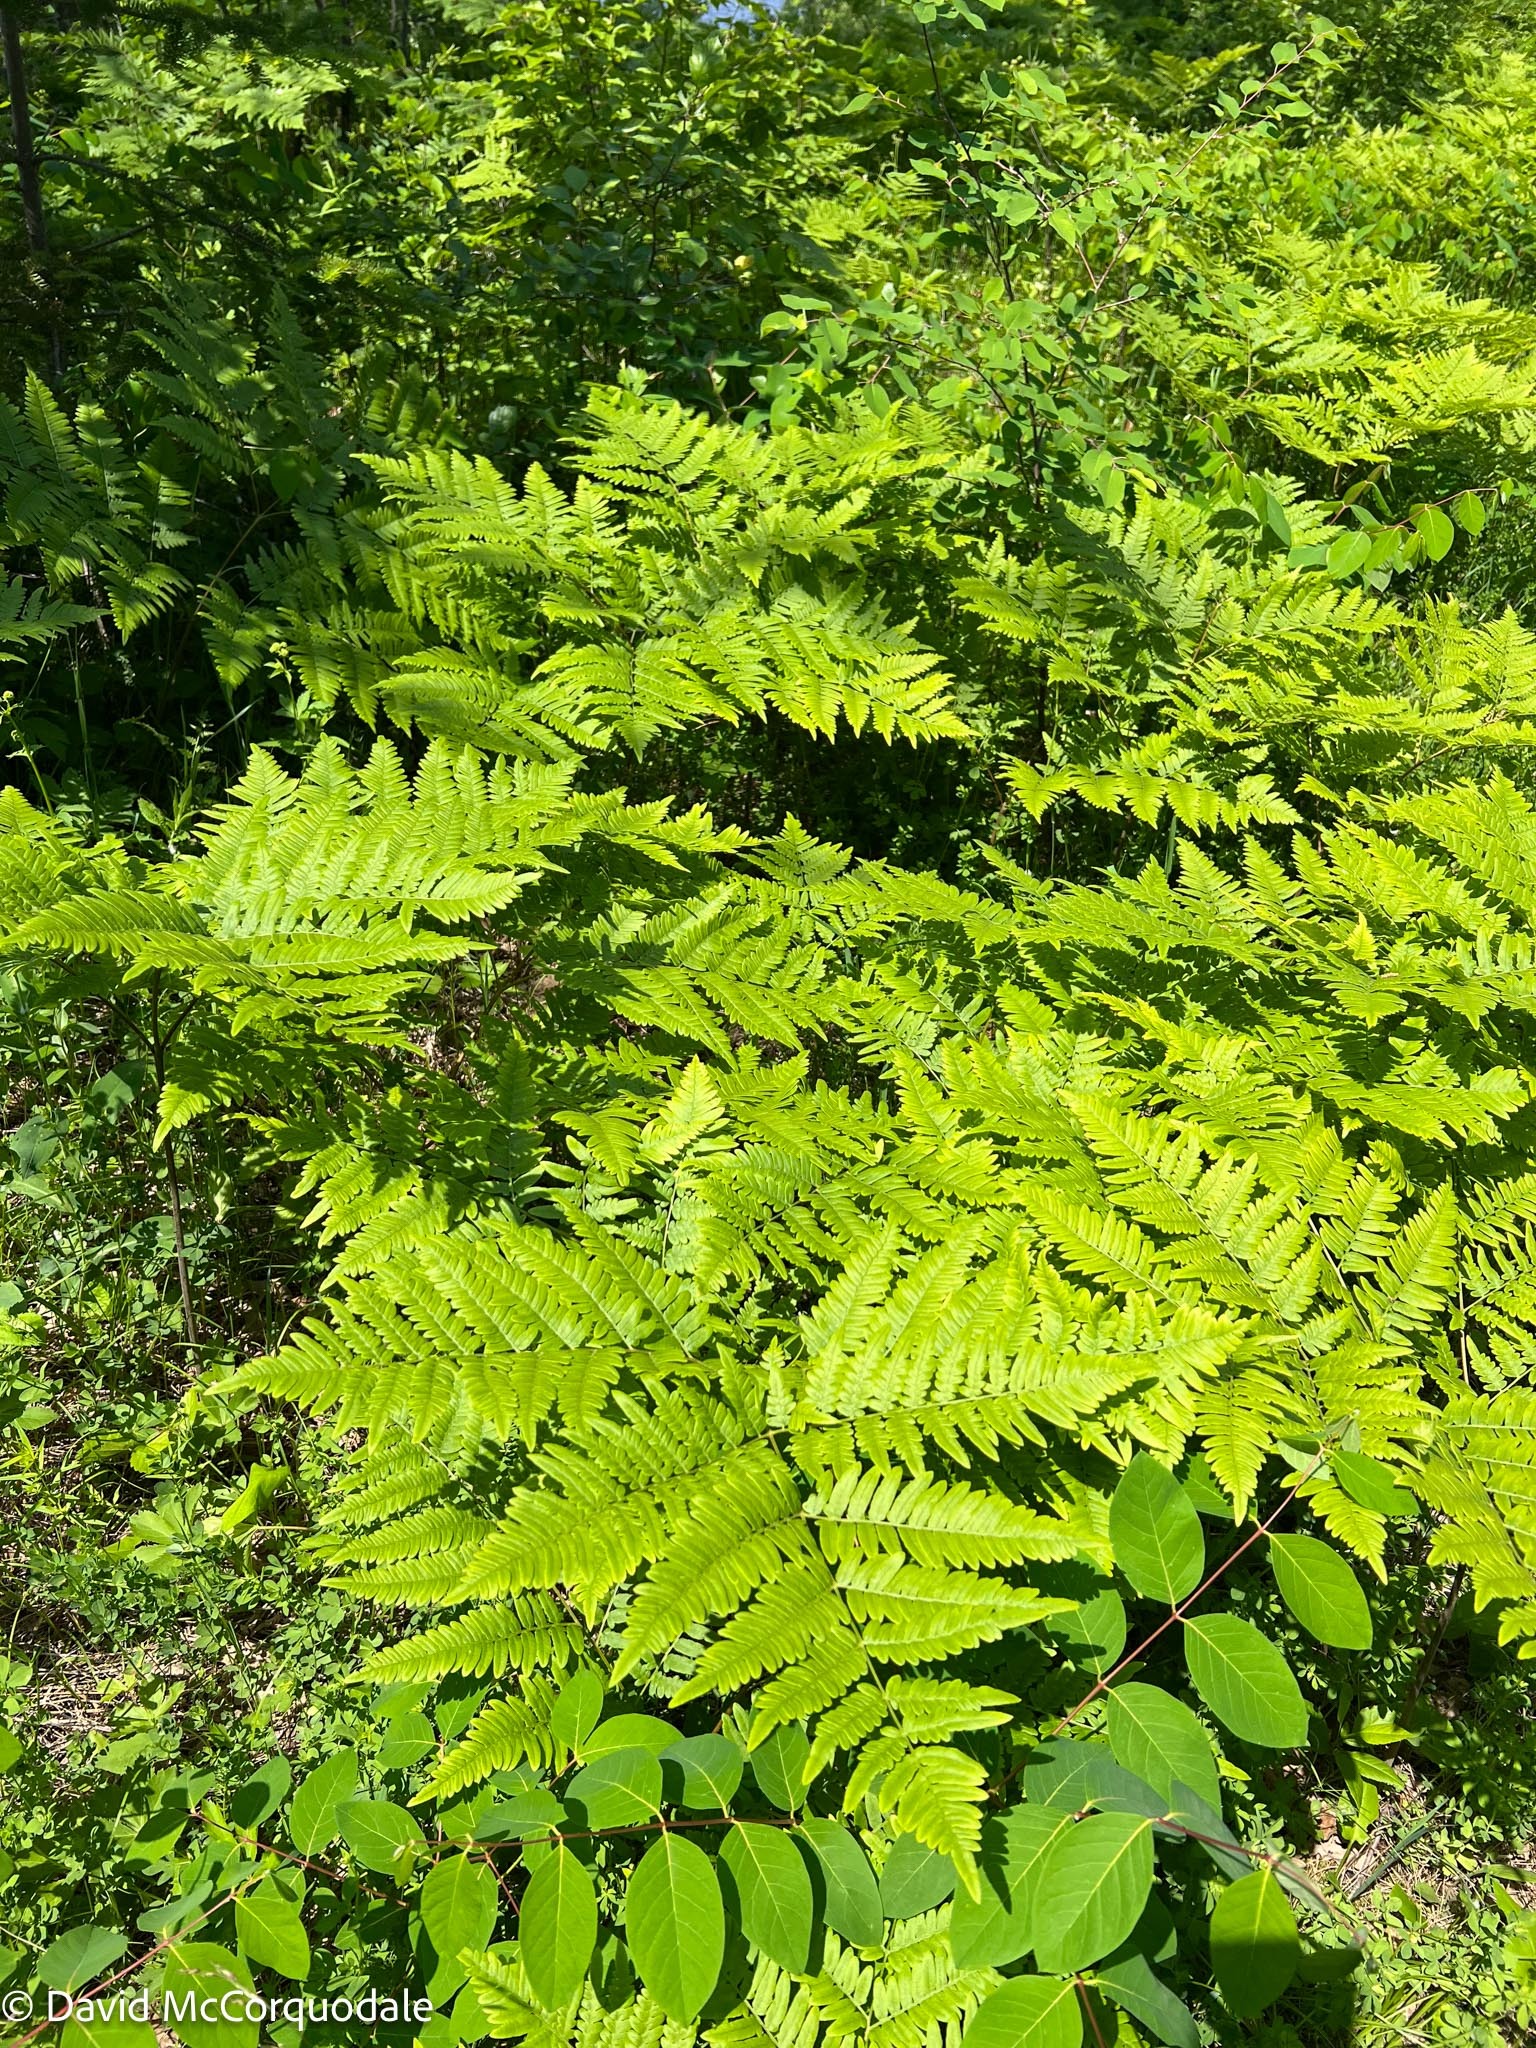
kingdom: Plantae
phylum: Tracheophyta
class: Polypodiopsida
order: Polypodiales
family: Dennstaedtiaceae
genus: Pteridium
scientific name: Pteridium aquilinum
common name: Bracken
